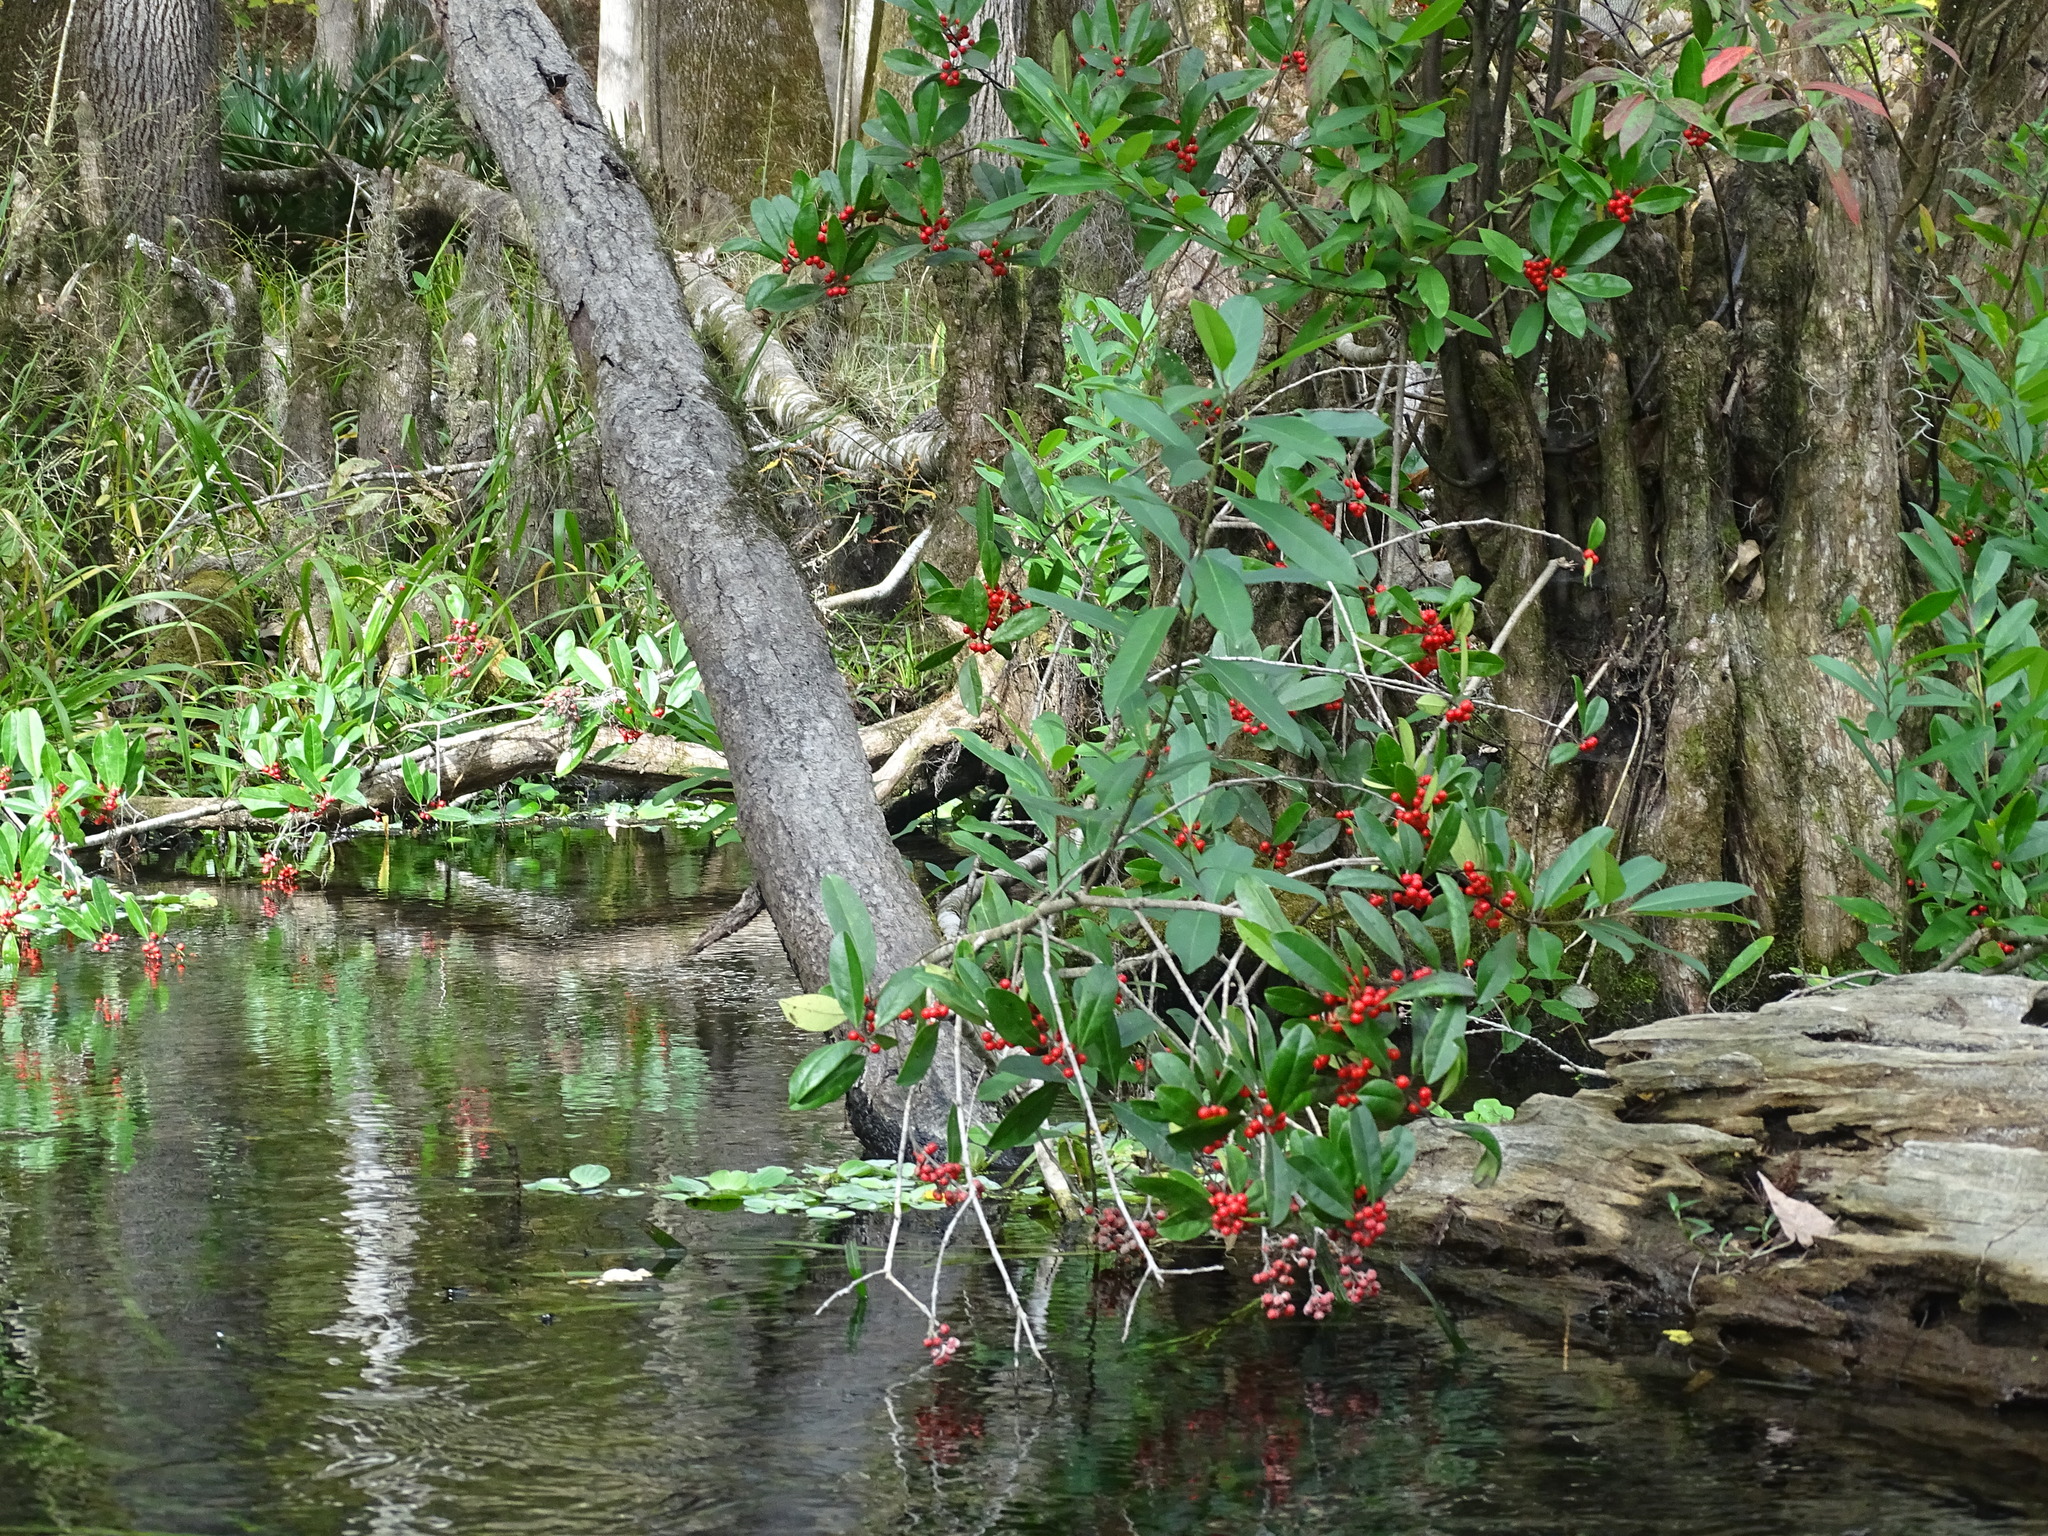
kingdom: Plantae
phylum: Tracheophyta
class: Magnoliopsida
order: Aquifoliales
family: Aquifoliaceae
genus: Ilex
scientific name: Ilex cassine
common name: Dahoon
